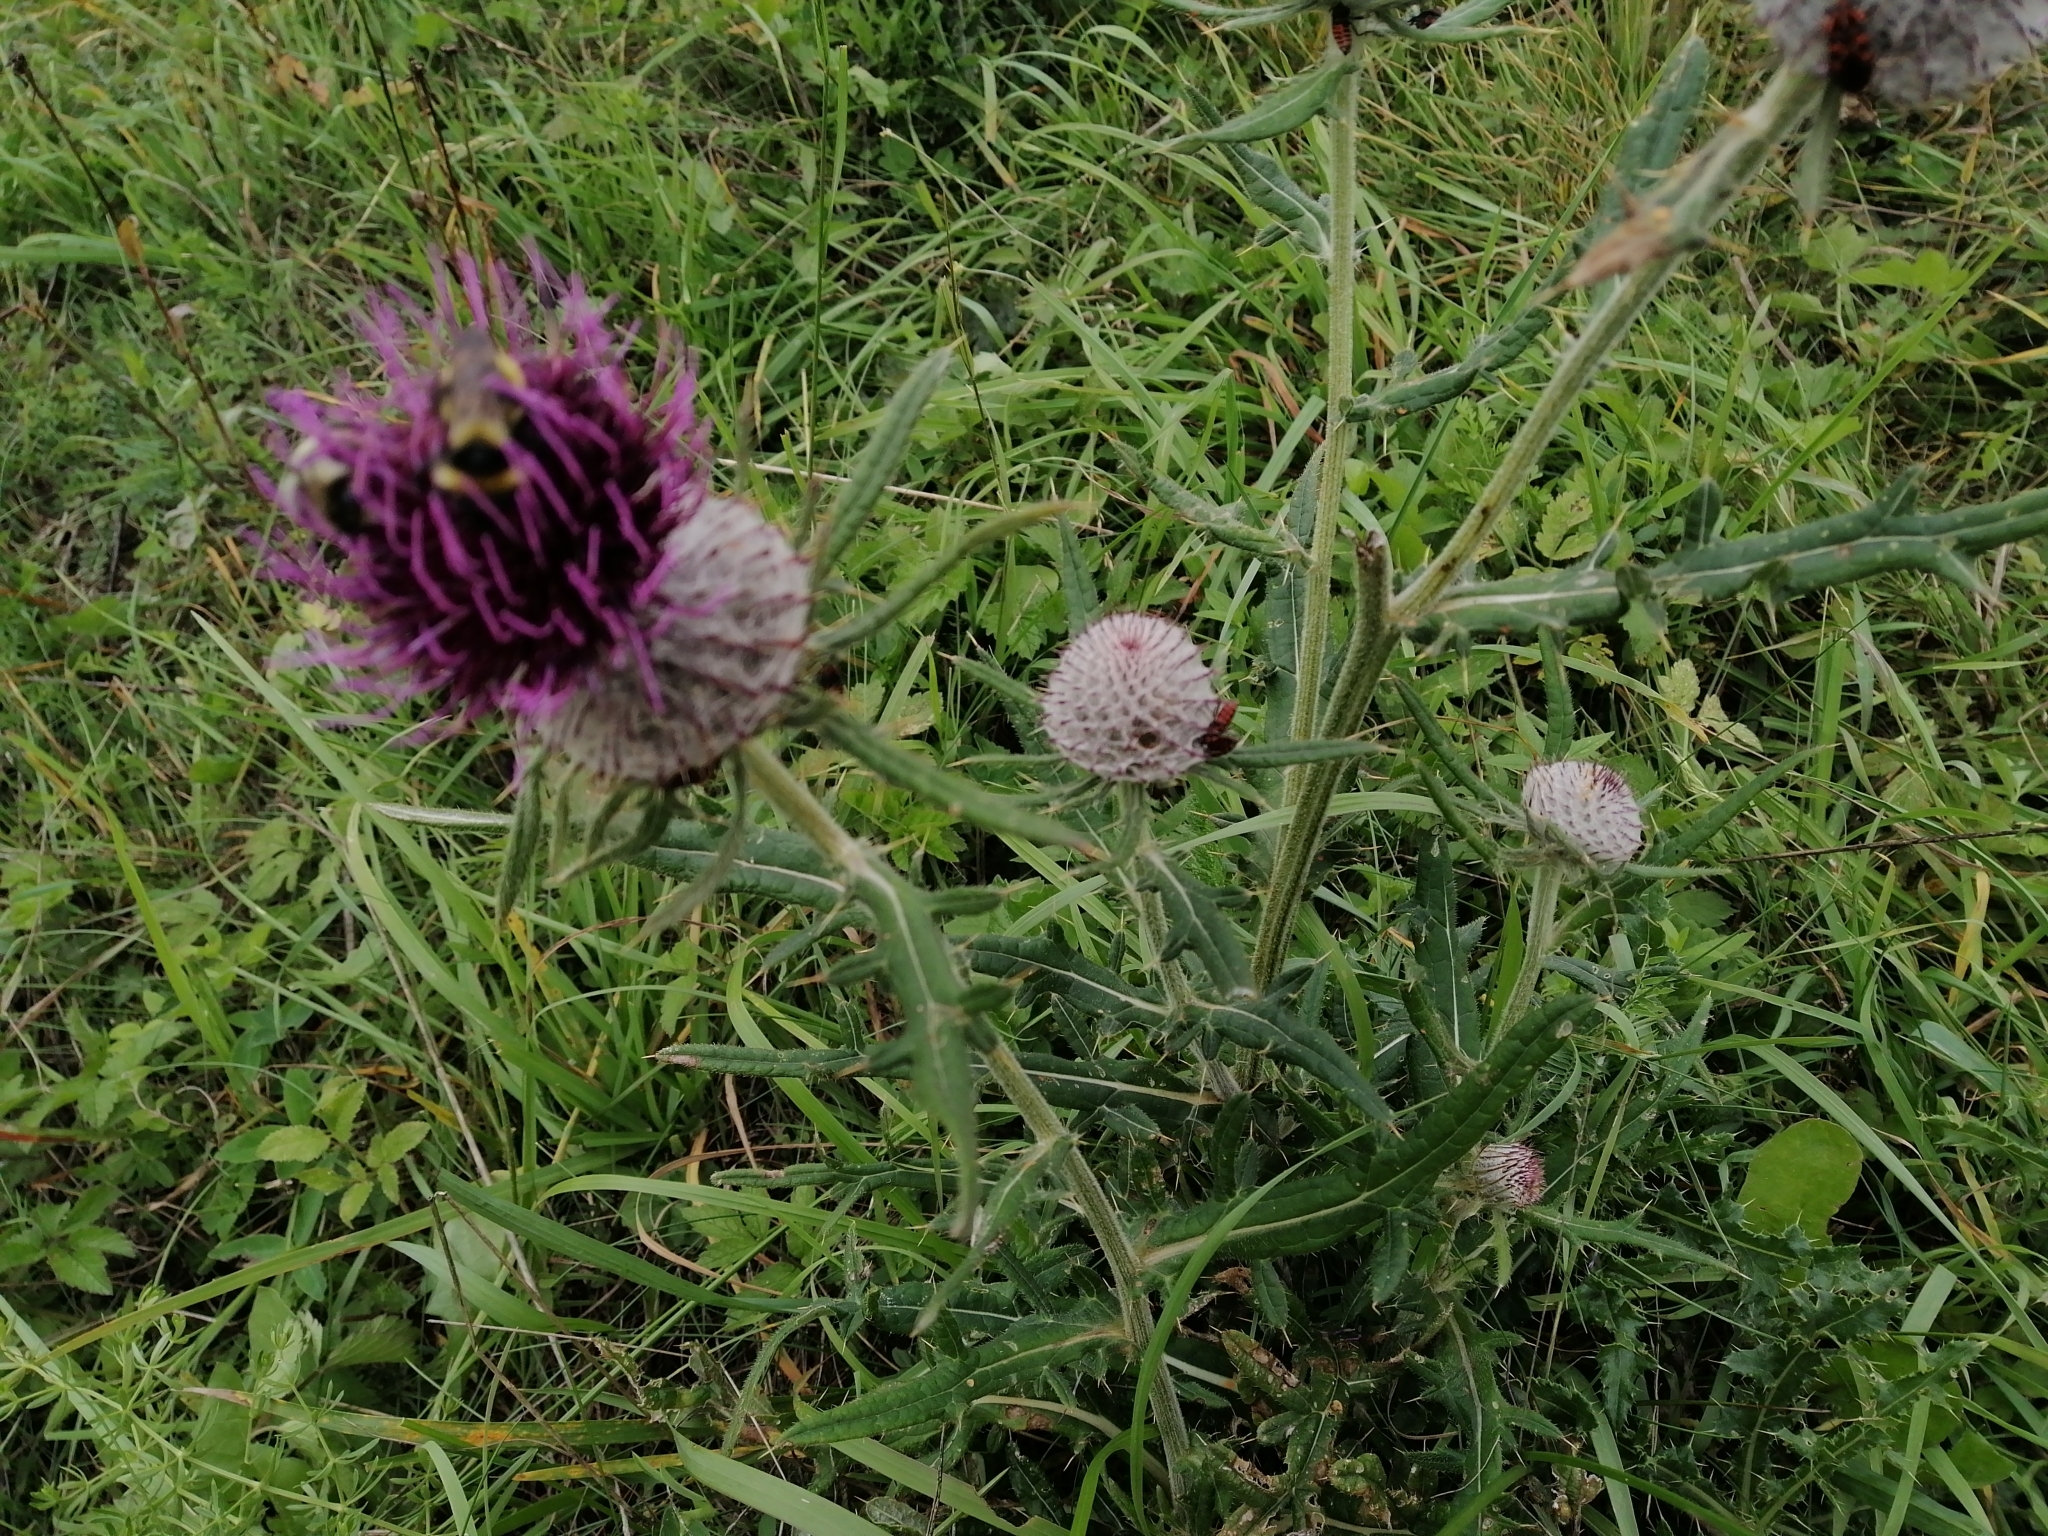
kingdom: Plantae
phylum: Tracheophyta
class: Magnoliopsida
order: Asterales
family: Asteraceae
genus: Lophiolepis
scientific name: Lophiolepis eriophora
